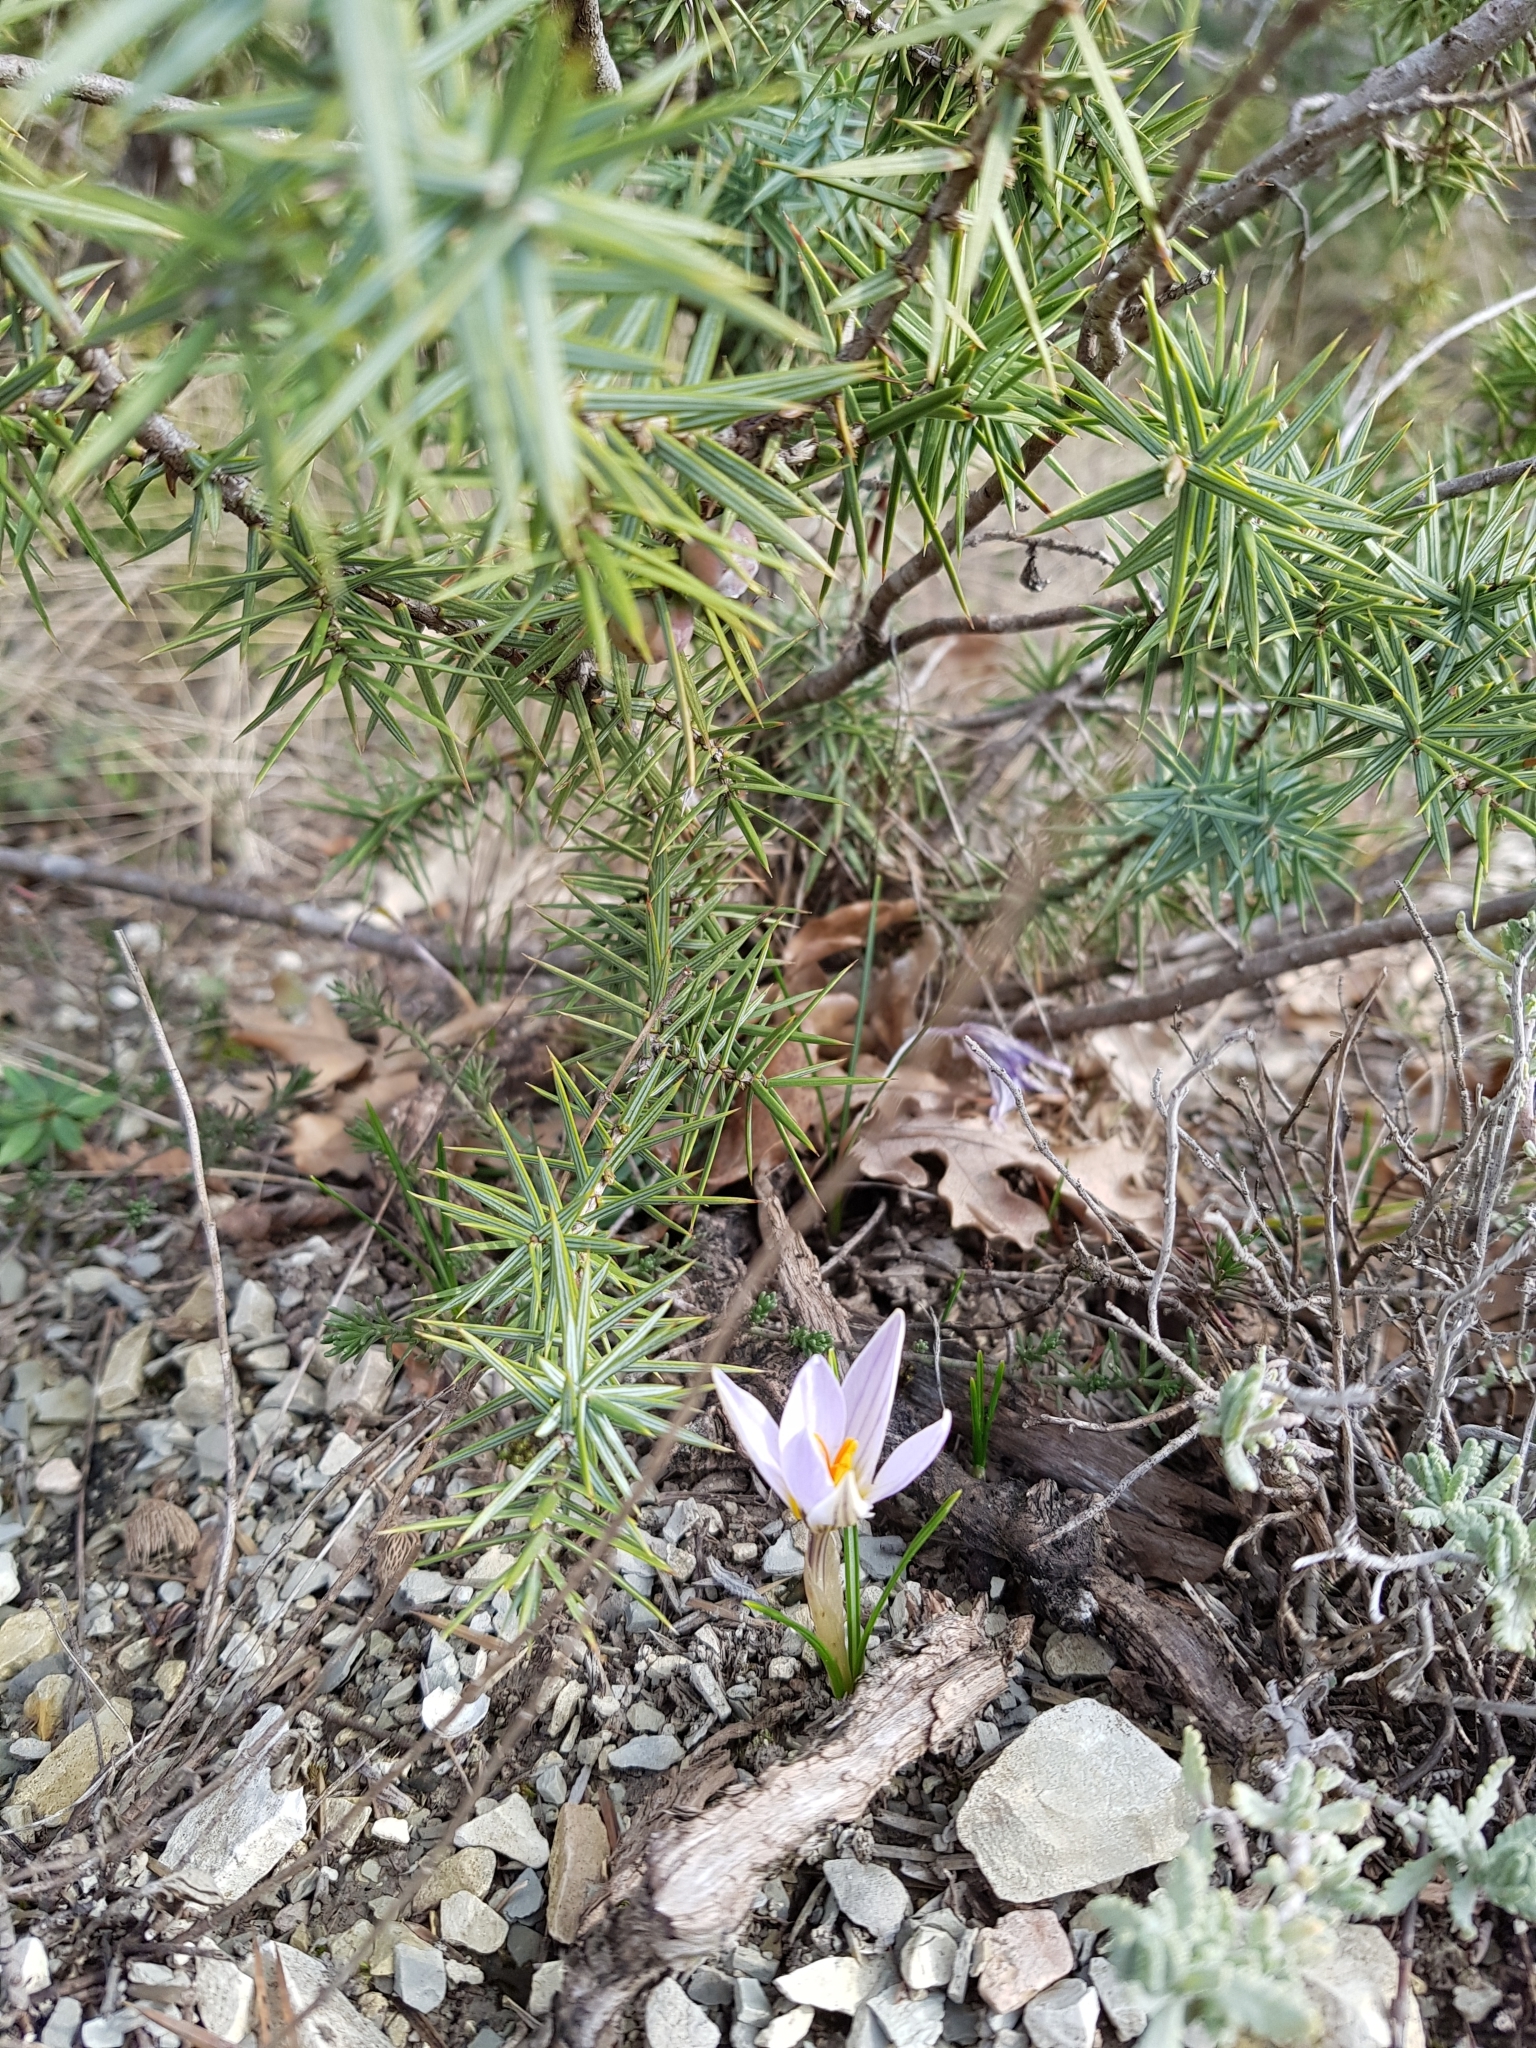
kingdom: Plantae
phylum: Tracheophyta
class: Liliopsida
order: Asparagales
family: Iridaceae
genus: Crocus
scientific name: Crocus reticulatus
